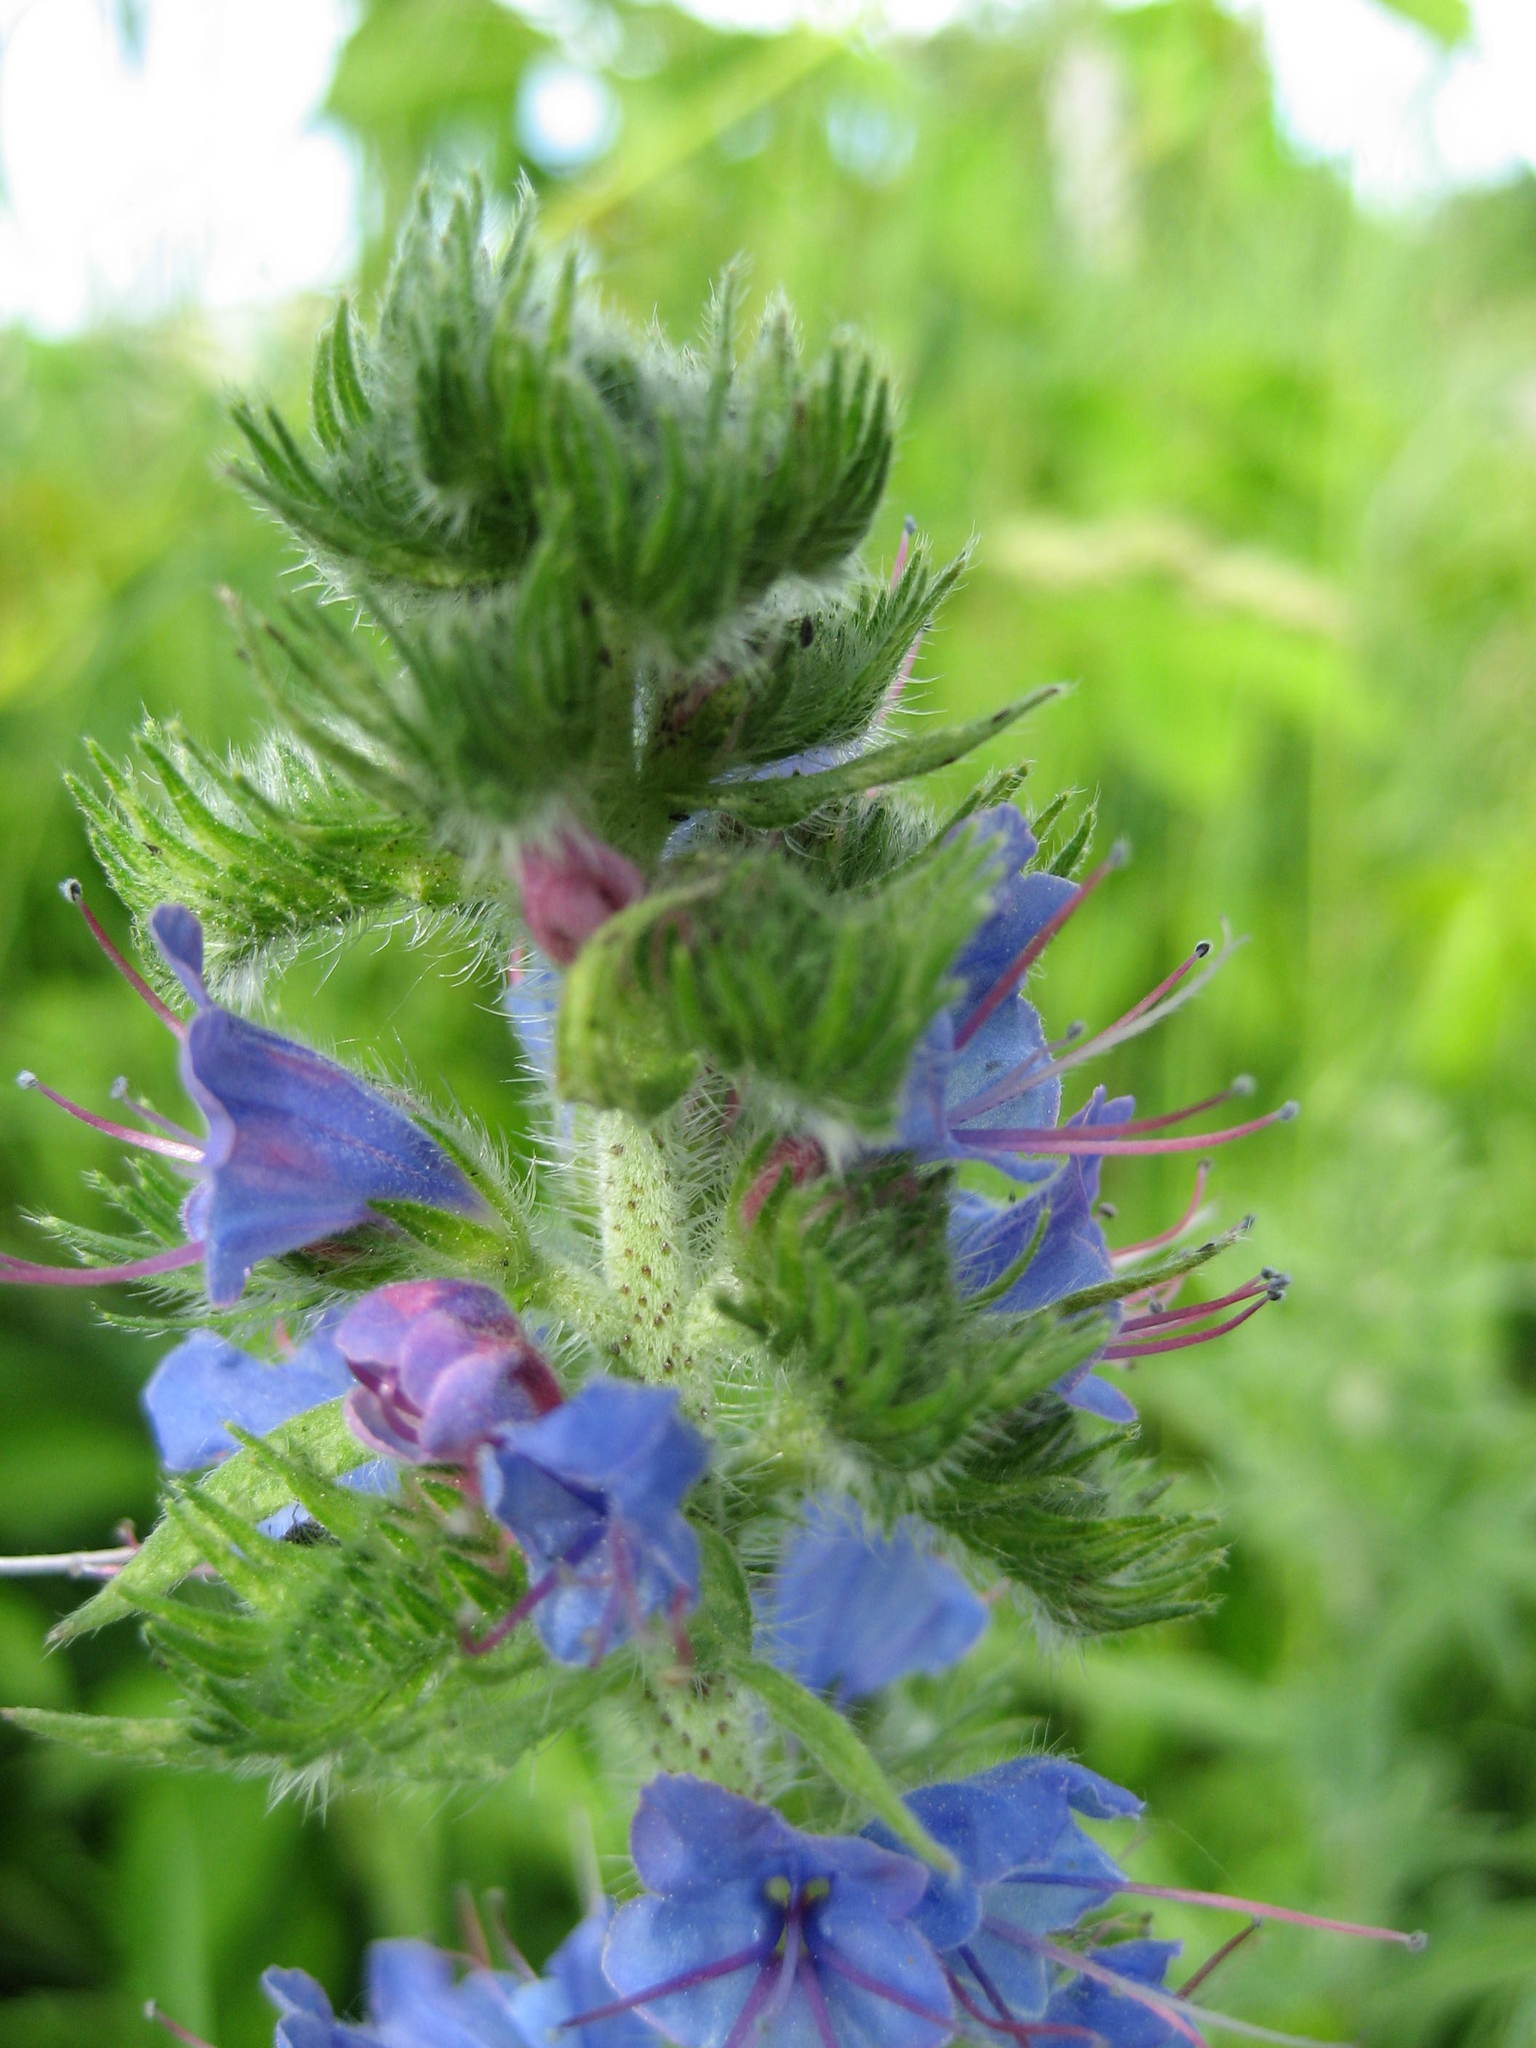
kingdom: Plantae
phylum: Tracheophyta
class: Magnoliopsida
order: Boraginales
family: Boraginaceae
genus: Echium
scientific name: Echium vulgare
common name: Common viper's bugloss
